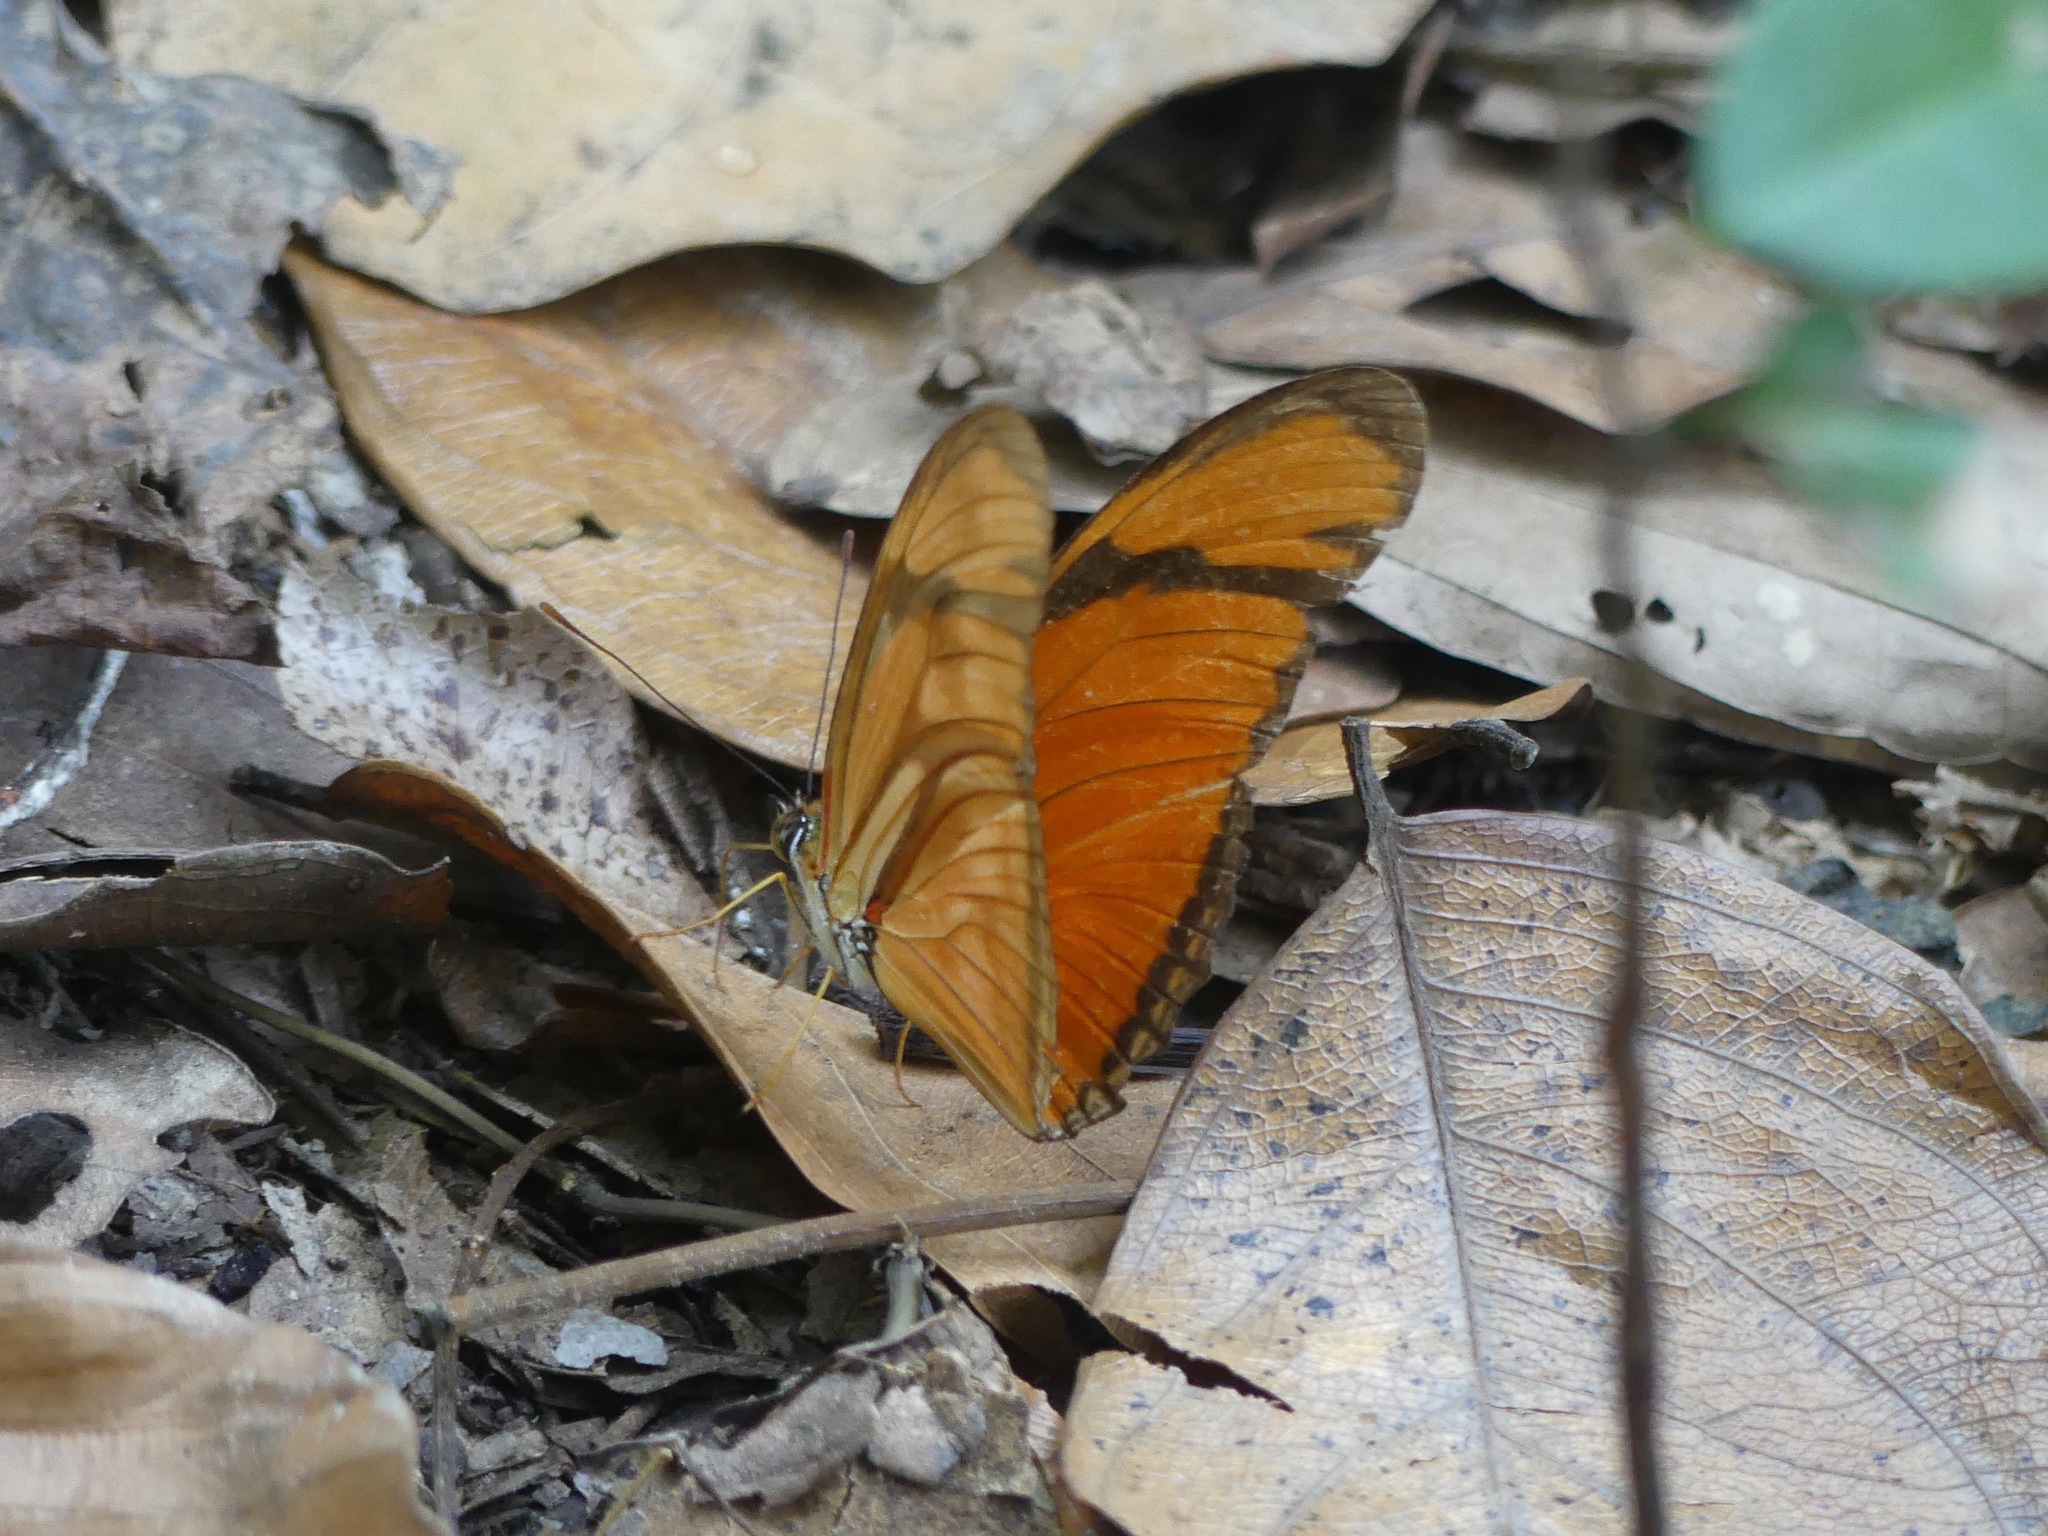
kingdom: Animalia
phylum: Arthropoda
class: Insecta
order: Lepidoptera
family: Nymphalidae
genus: Dryas
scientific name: Dryas iulia
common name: Flambeau
